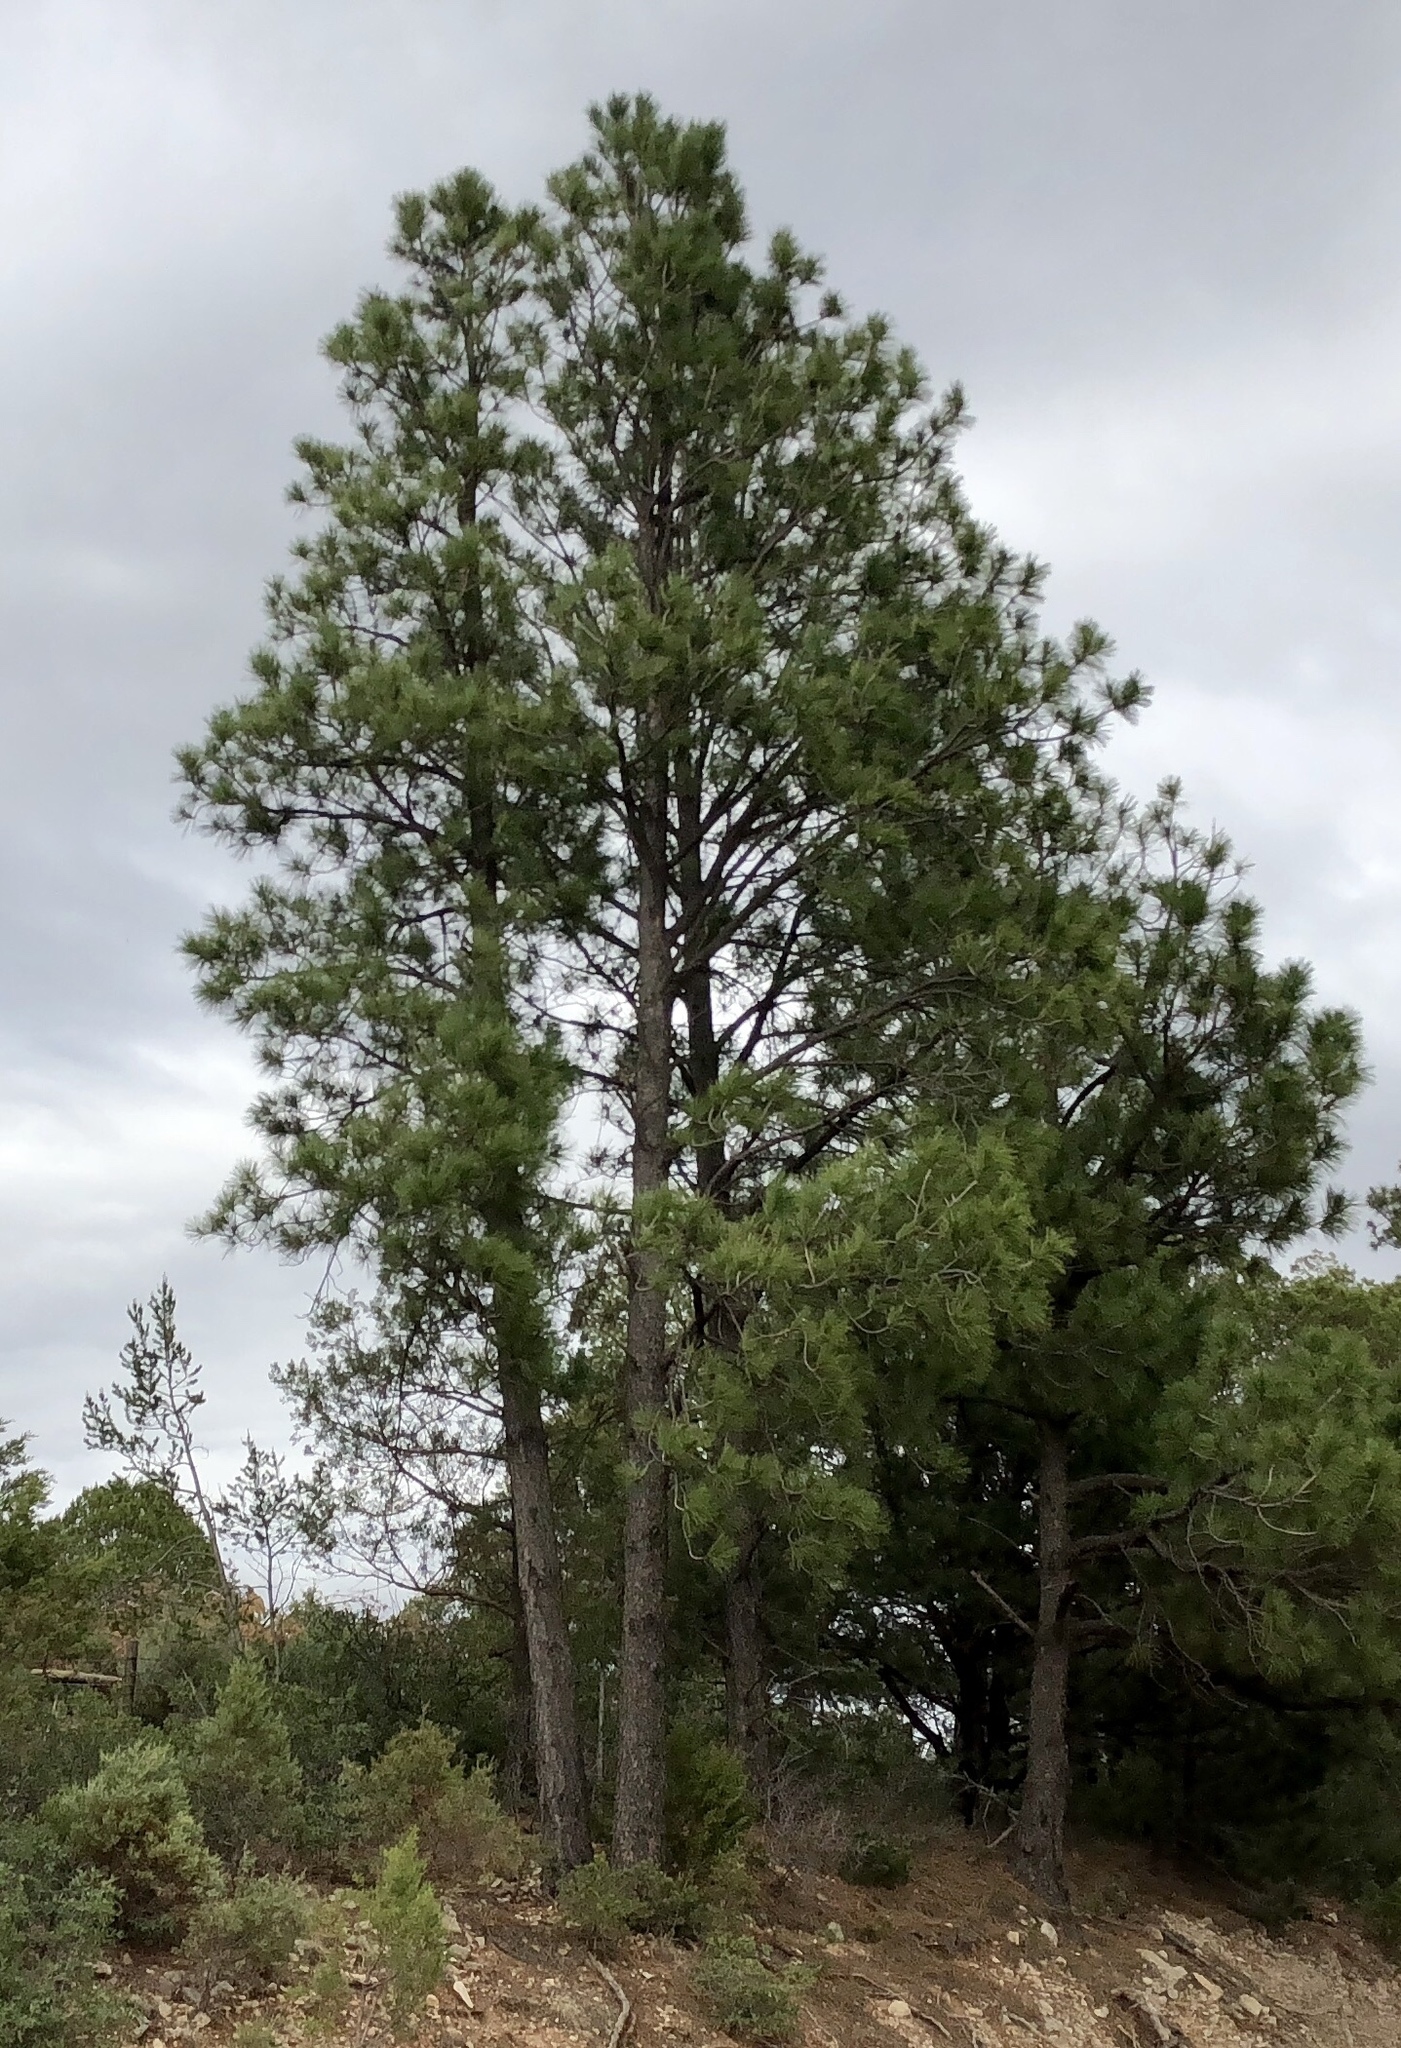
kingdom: Plantae
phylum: Tracheophyta
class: Pinopsida
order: Pinales
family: Pinaceae
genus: Pinus
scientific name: Pinus ponderosa
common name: Western yellow-pine
